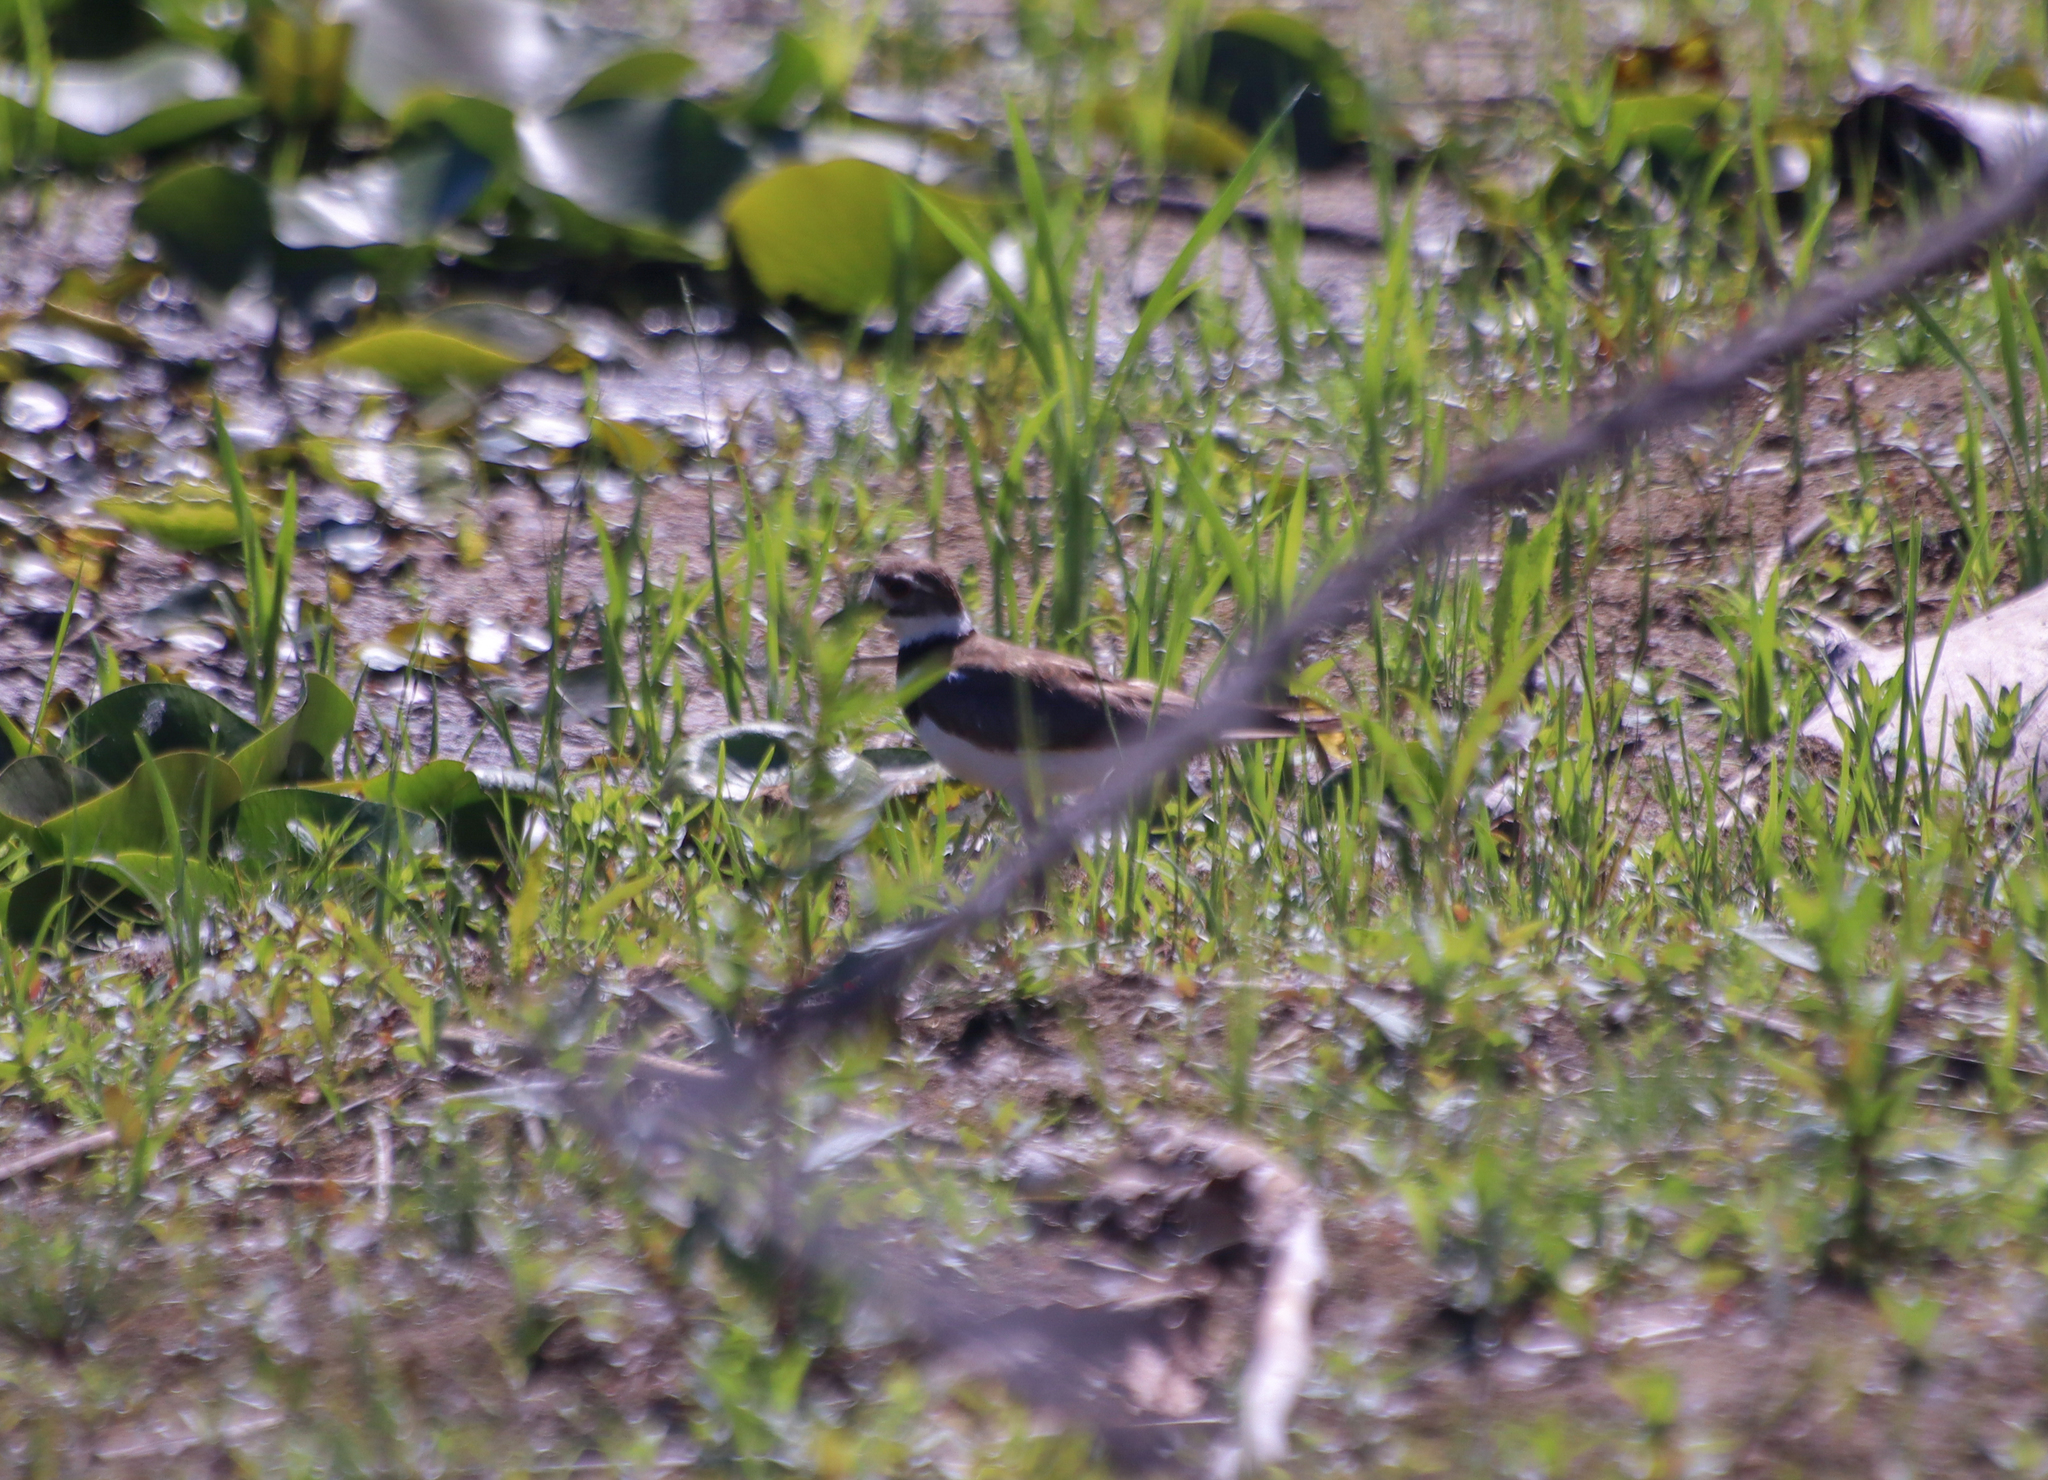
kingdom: Animalia
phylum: Chordata
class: Aves
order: Charadriiformes
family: Charadriidae
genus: Charadrius
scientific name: Charadrius vociferus
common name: Killdeer
